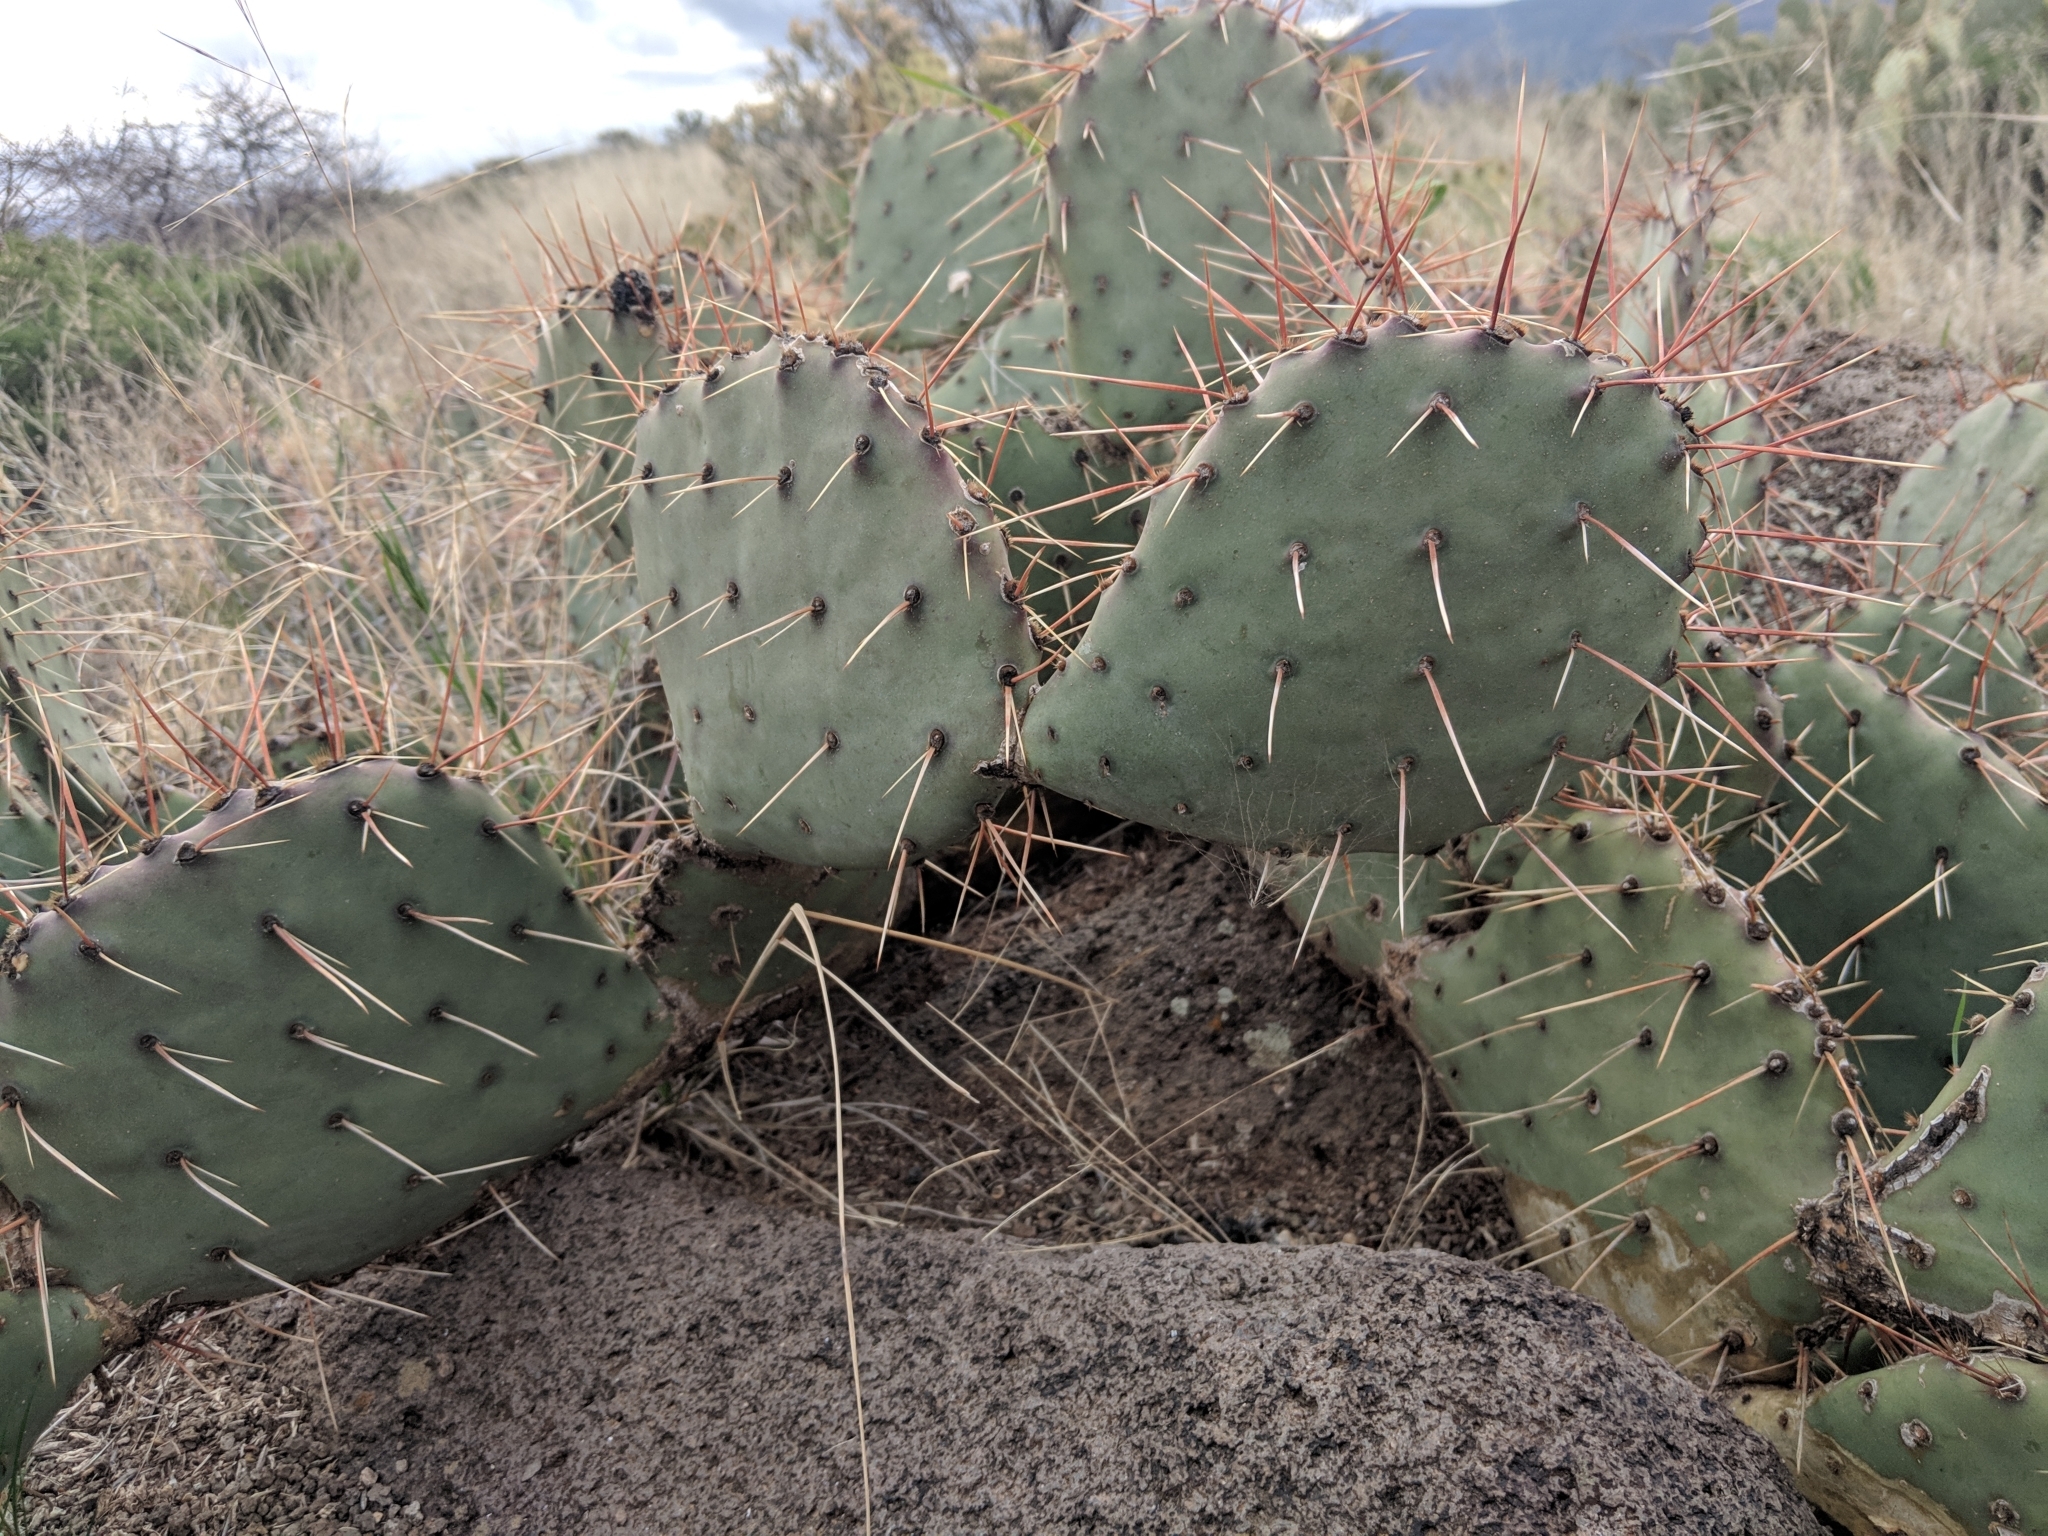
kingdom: Plantae
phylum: Tracheophyta
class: Magnoliopsida
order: Caryophyllales
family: Cactaceae
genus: Opuntia
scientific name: Opuntia phaeacantha
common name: New mexico prickly-pear
